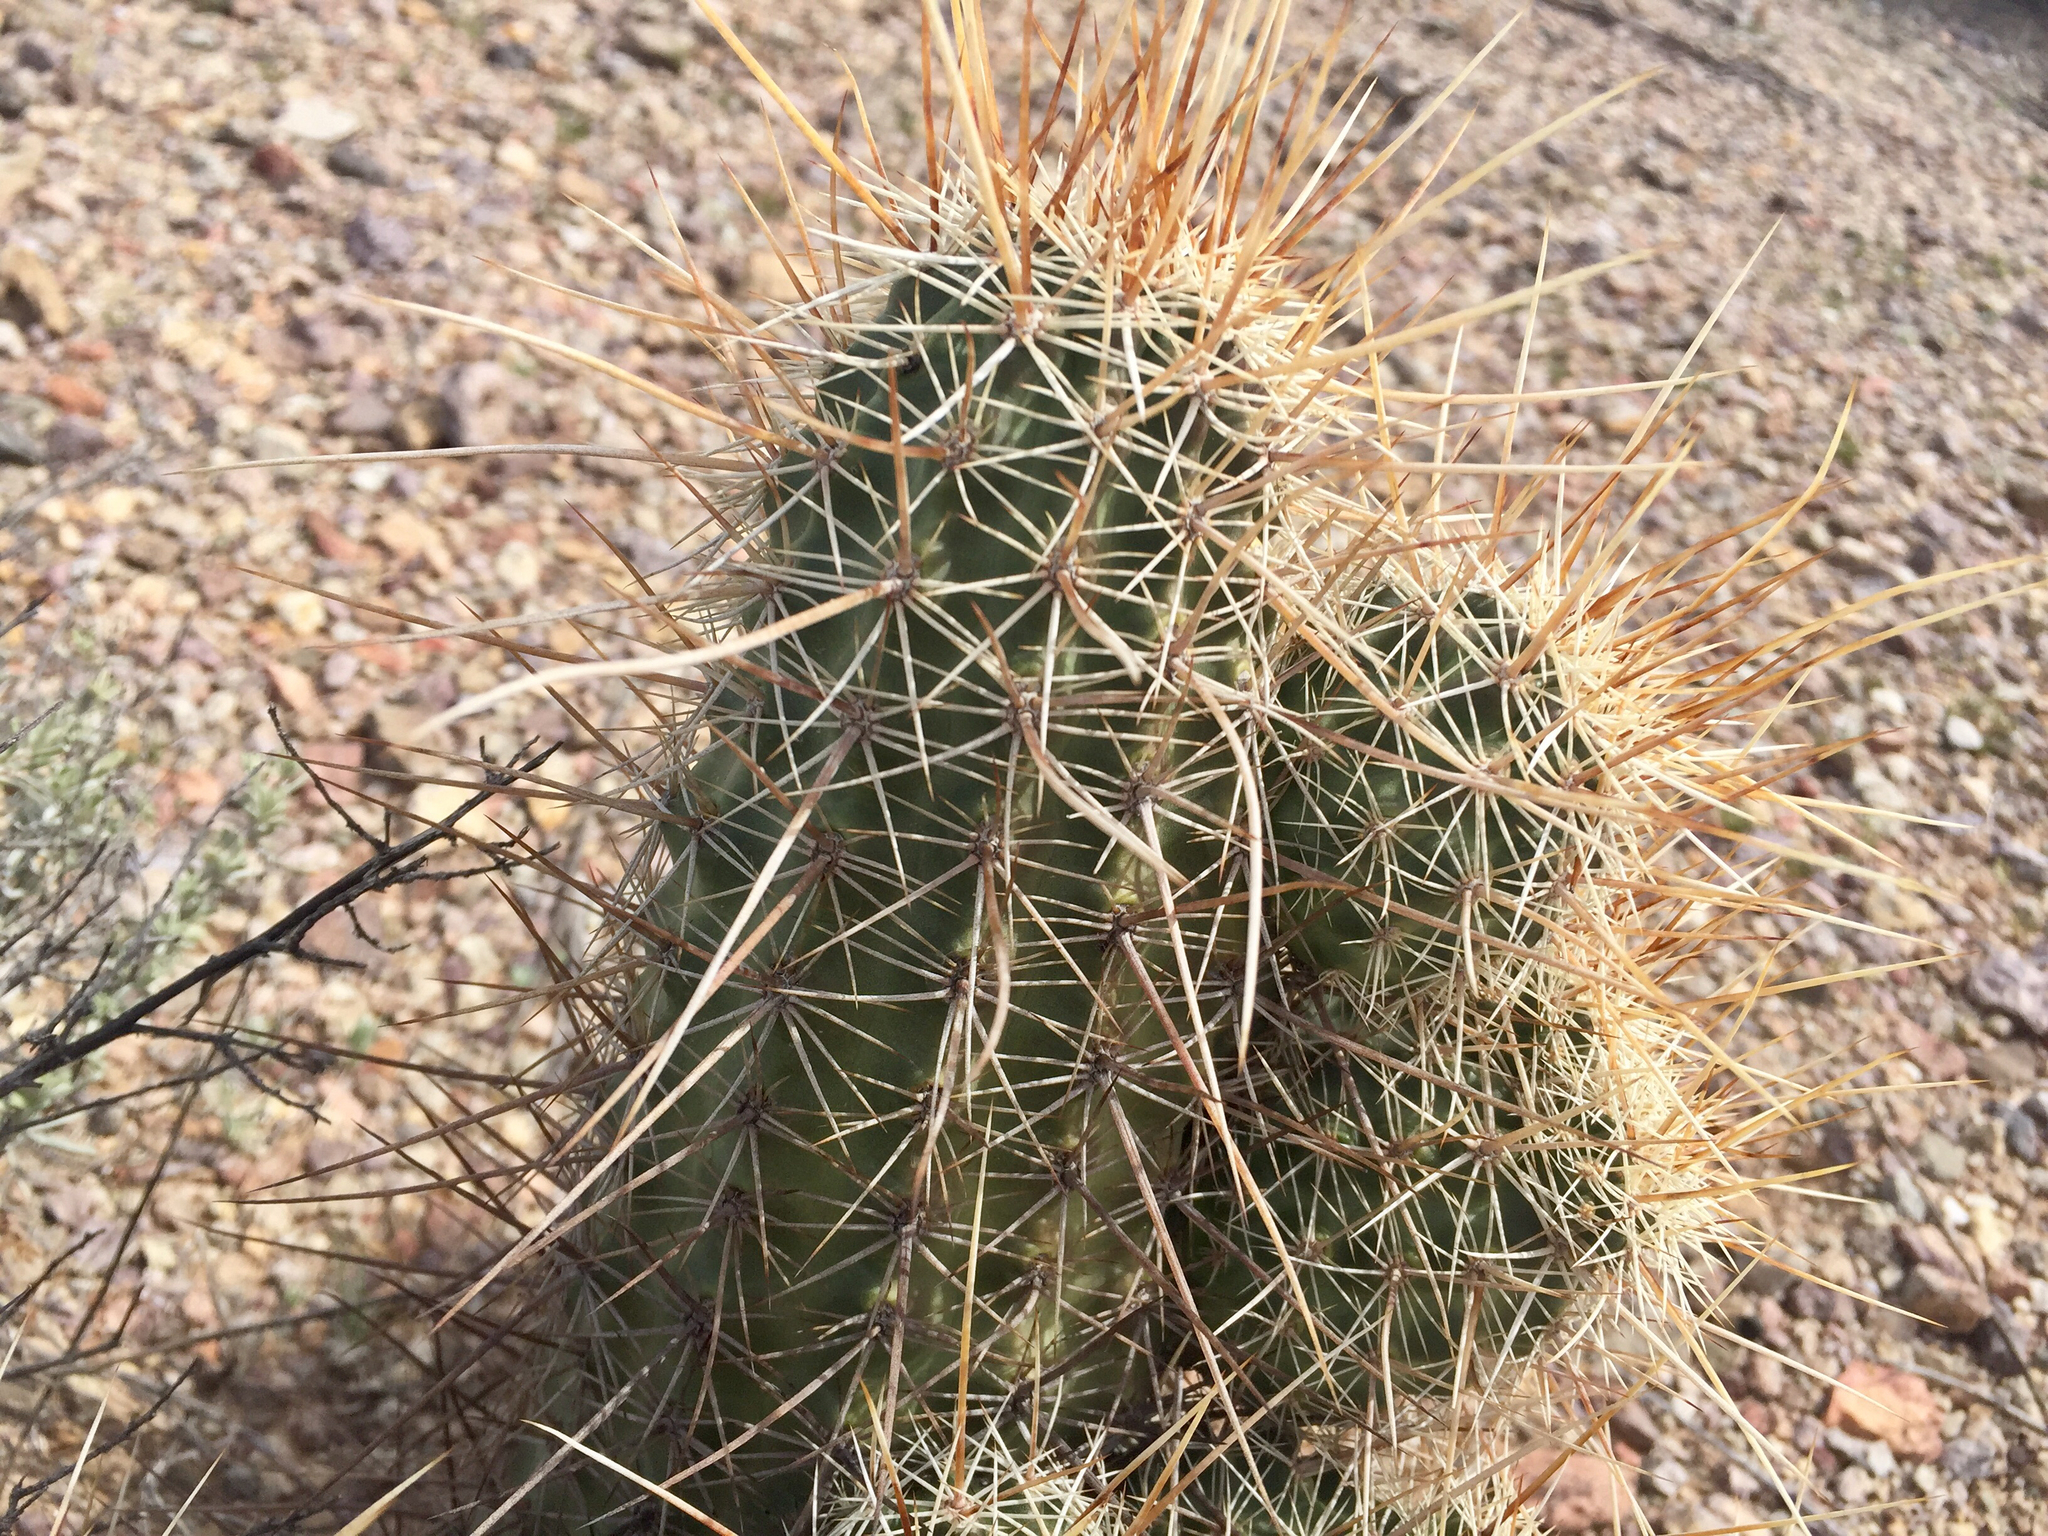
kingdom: Plantae
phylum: Tracheophyta
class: Magnoliopsida
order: Caryophyllales
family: Cactaceae
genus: Echinocereus
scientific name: Echinocereus fasciculatus
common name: Bundle hedgehog
